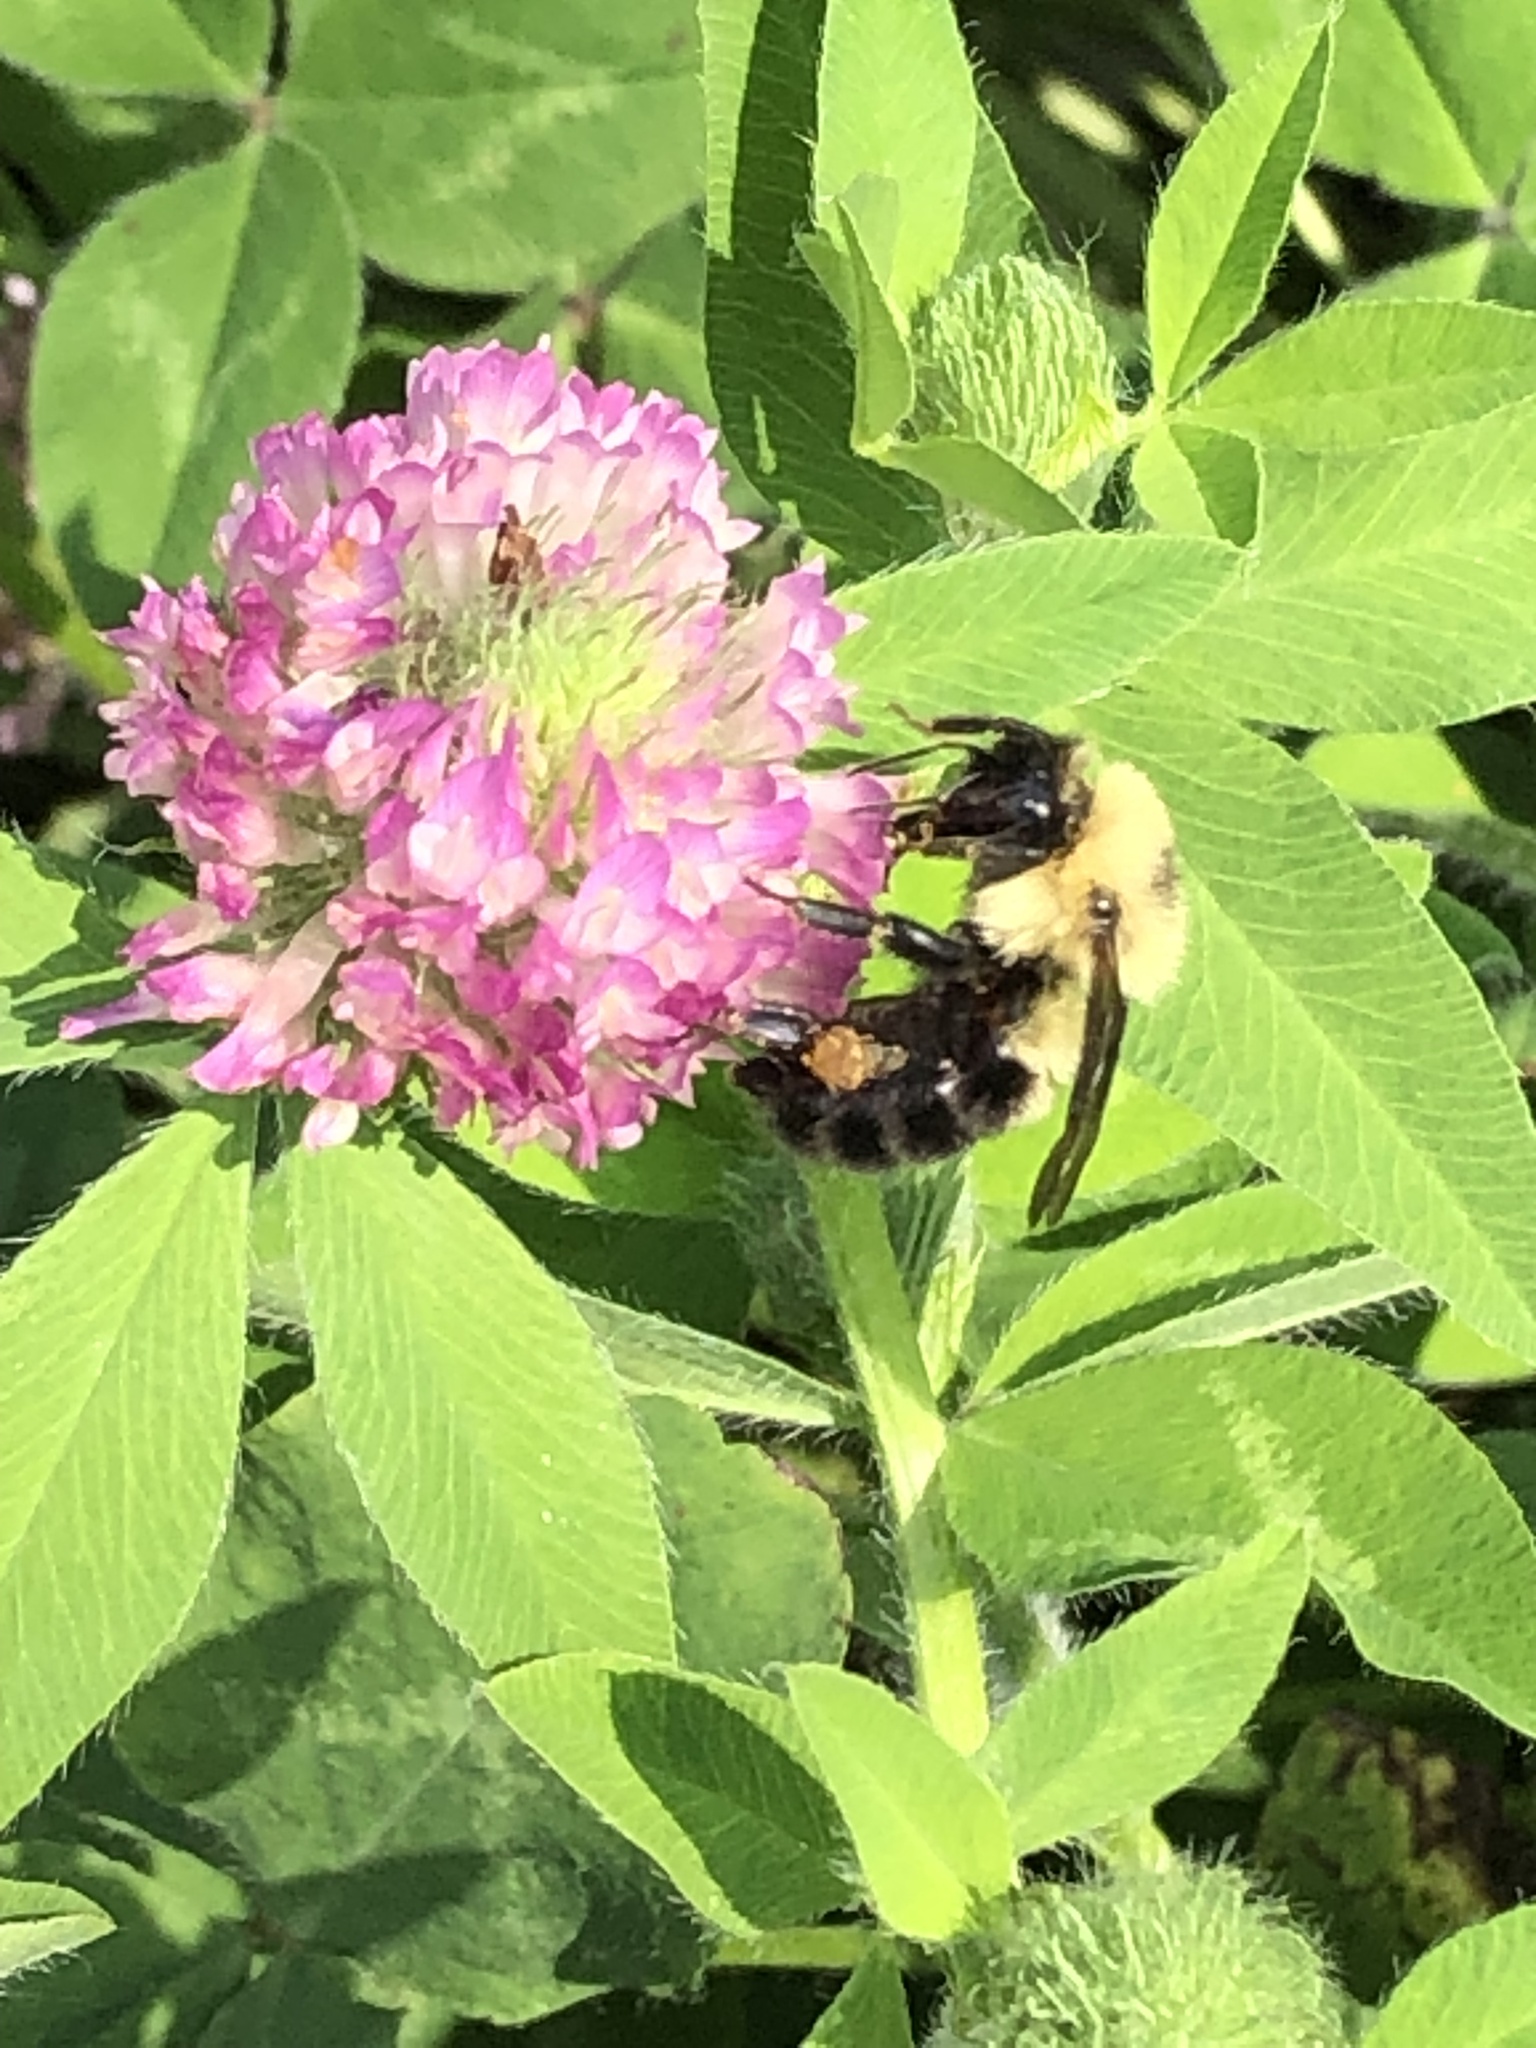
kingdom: Animalia
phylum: Arthropoda
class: Insecta
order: Hymenoptera
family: Apidae
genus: Bombus
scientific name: Bombus bimaculatus
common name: Two-spotted bumble bee
